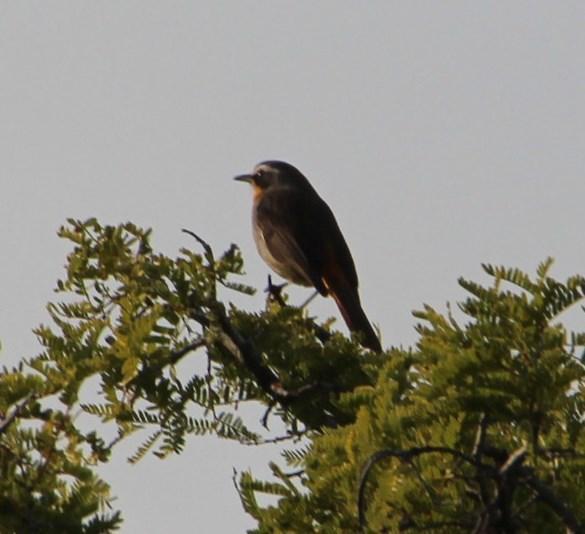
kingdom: Animalia
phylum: Chordata
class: Aves
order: Passeriformes
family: Muscicapidae
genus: Cossypha
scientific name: Cossypha caffra
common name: Cape robin-chat
